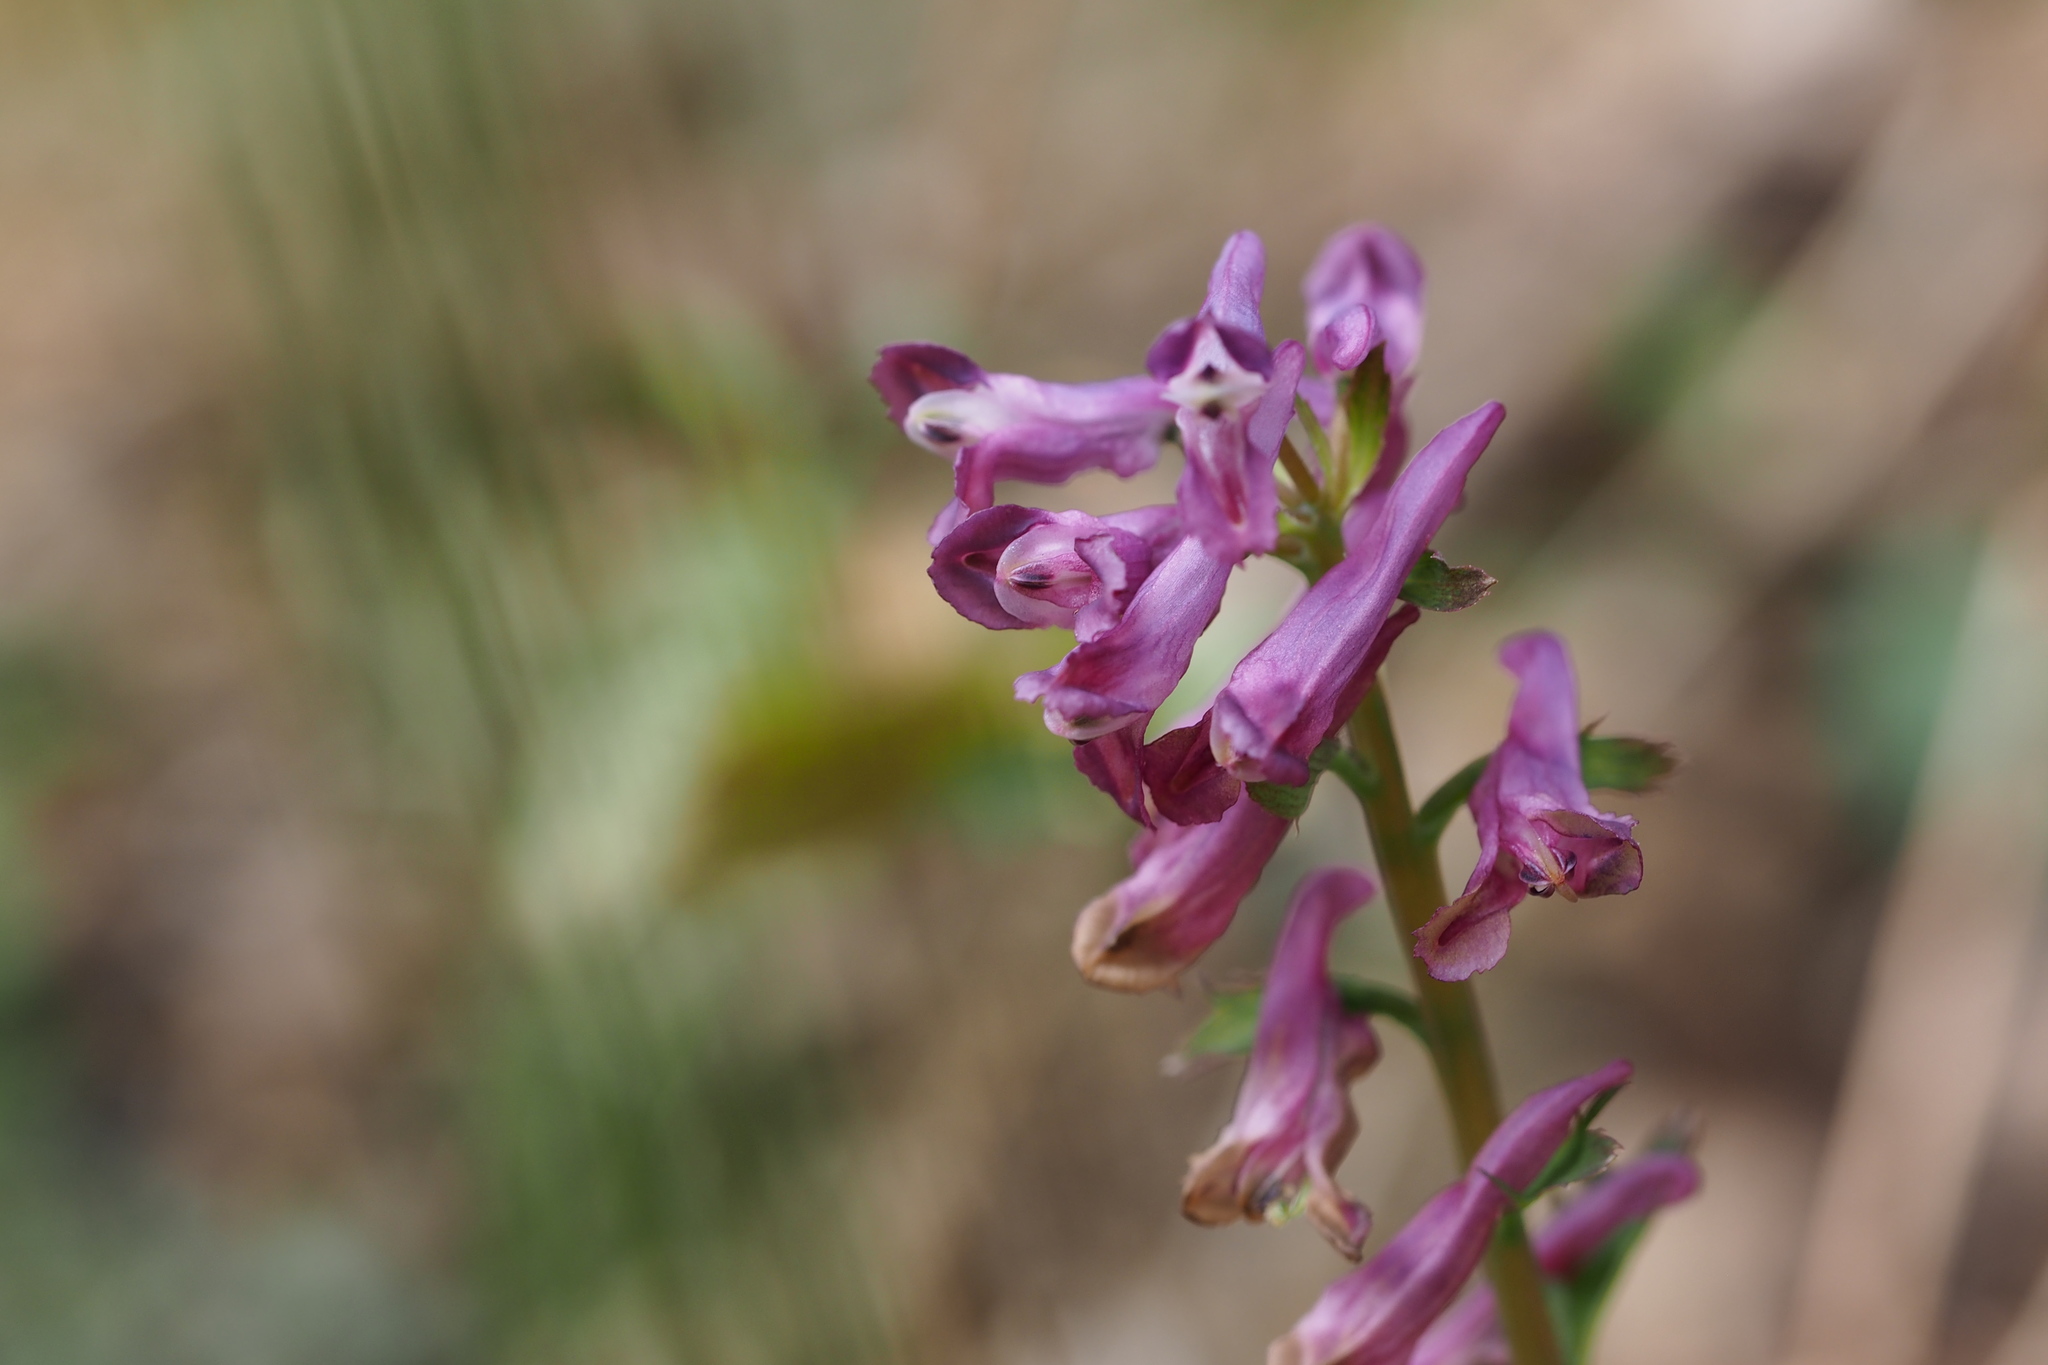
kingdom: Plantae
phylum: Tracheophyta
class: Magnoliopsida
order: Ranunculales
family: Papaveraceae
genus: Corydalis
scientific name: Corydalis incisa
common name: Incised fumewort
